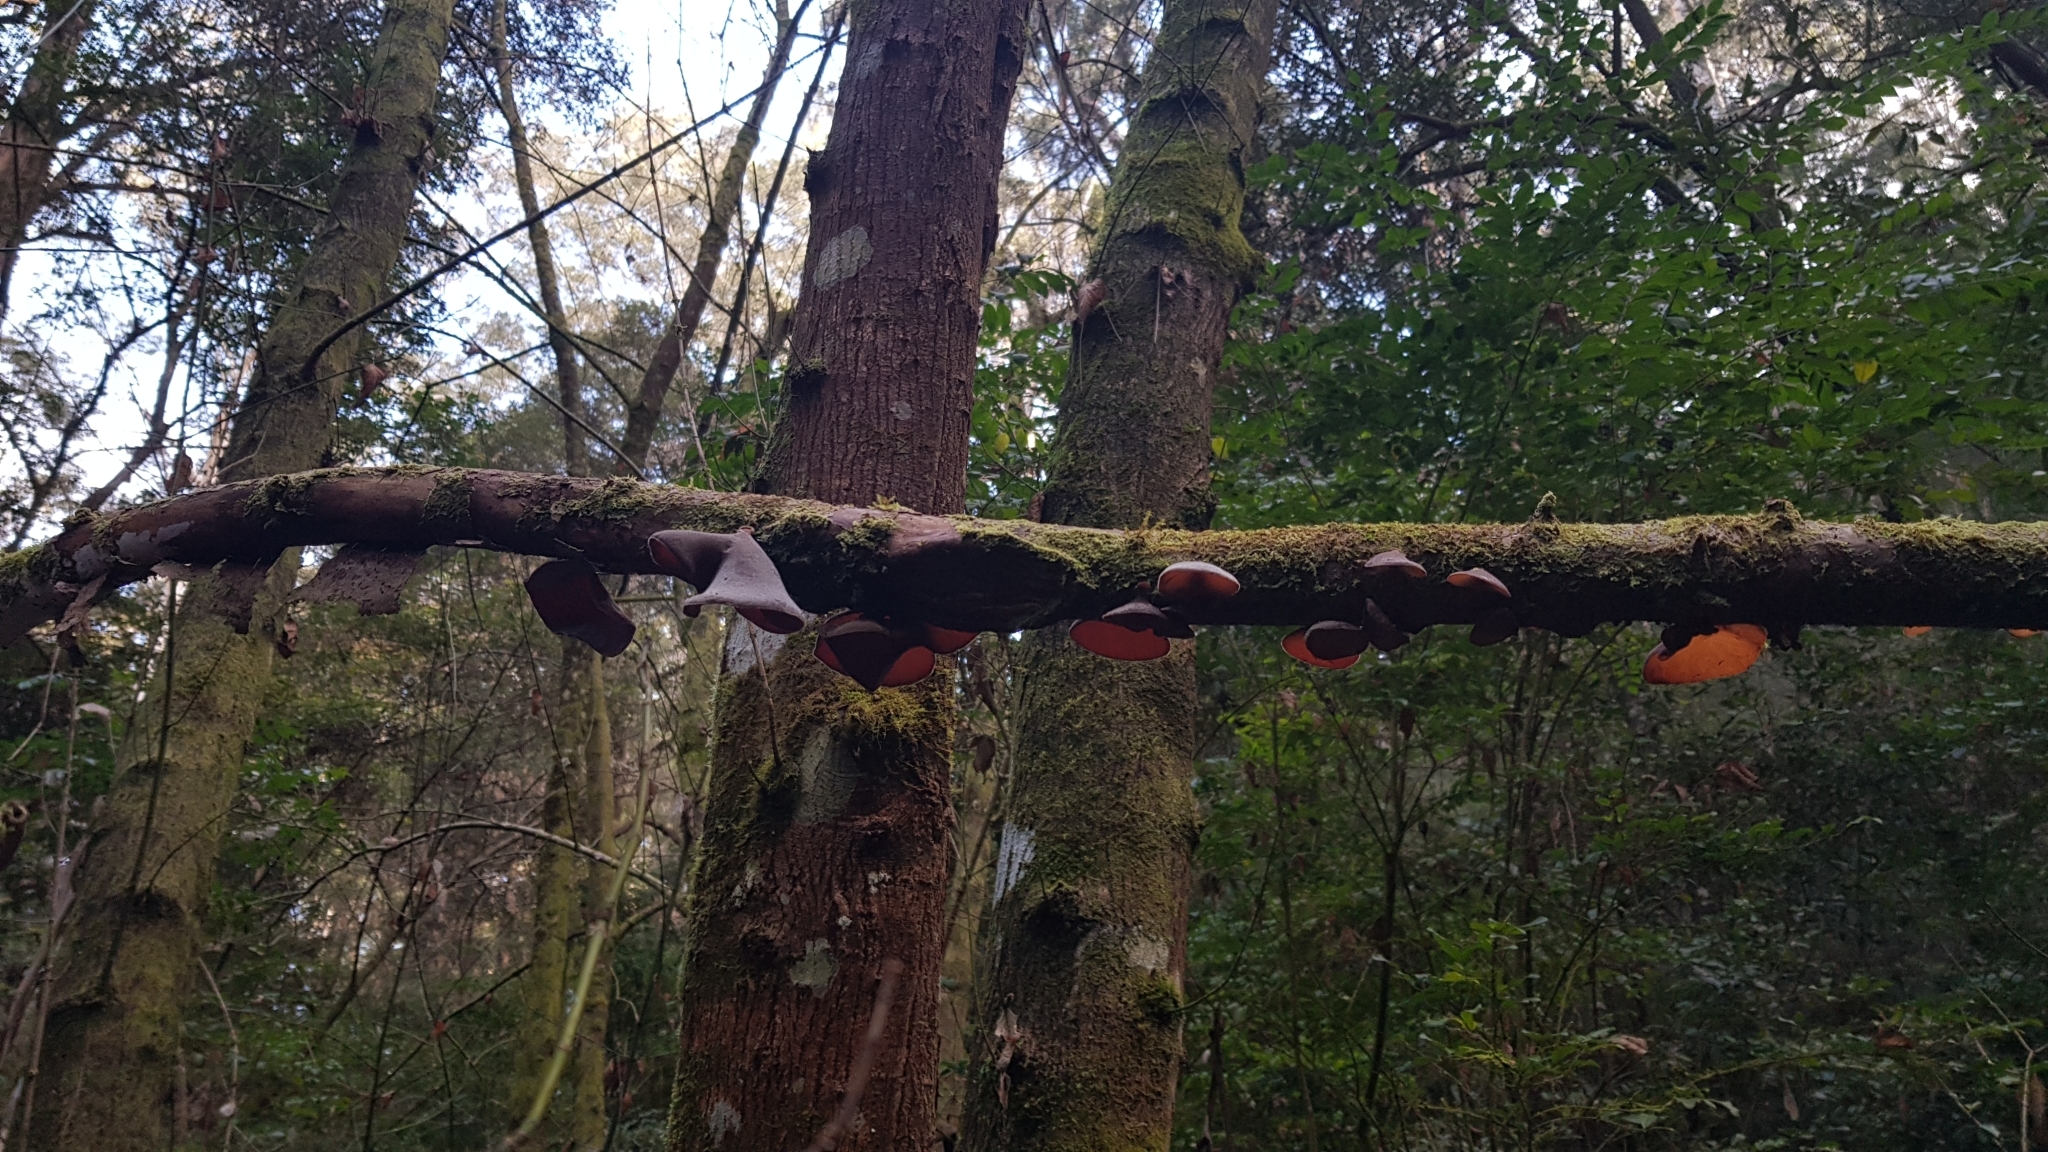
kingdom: Fungi
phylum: Basidiomycota
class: Agaricomycetes
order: Auriculariales
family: Auriculariaceae
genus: Auricularia
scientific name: Auricularia cornea
